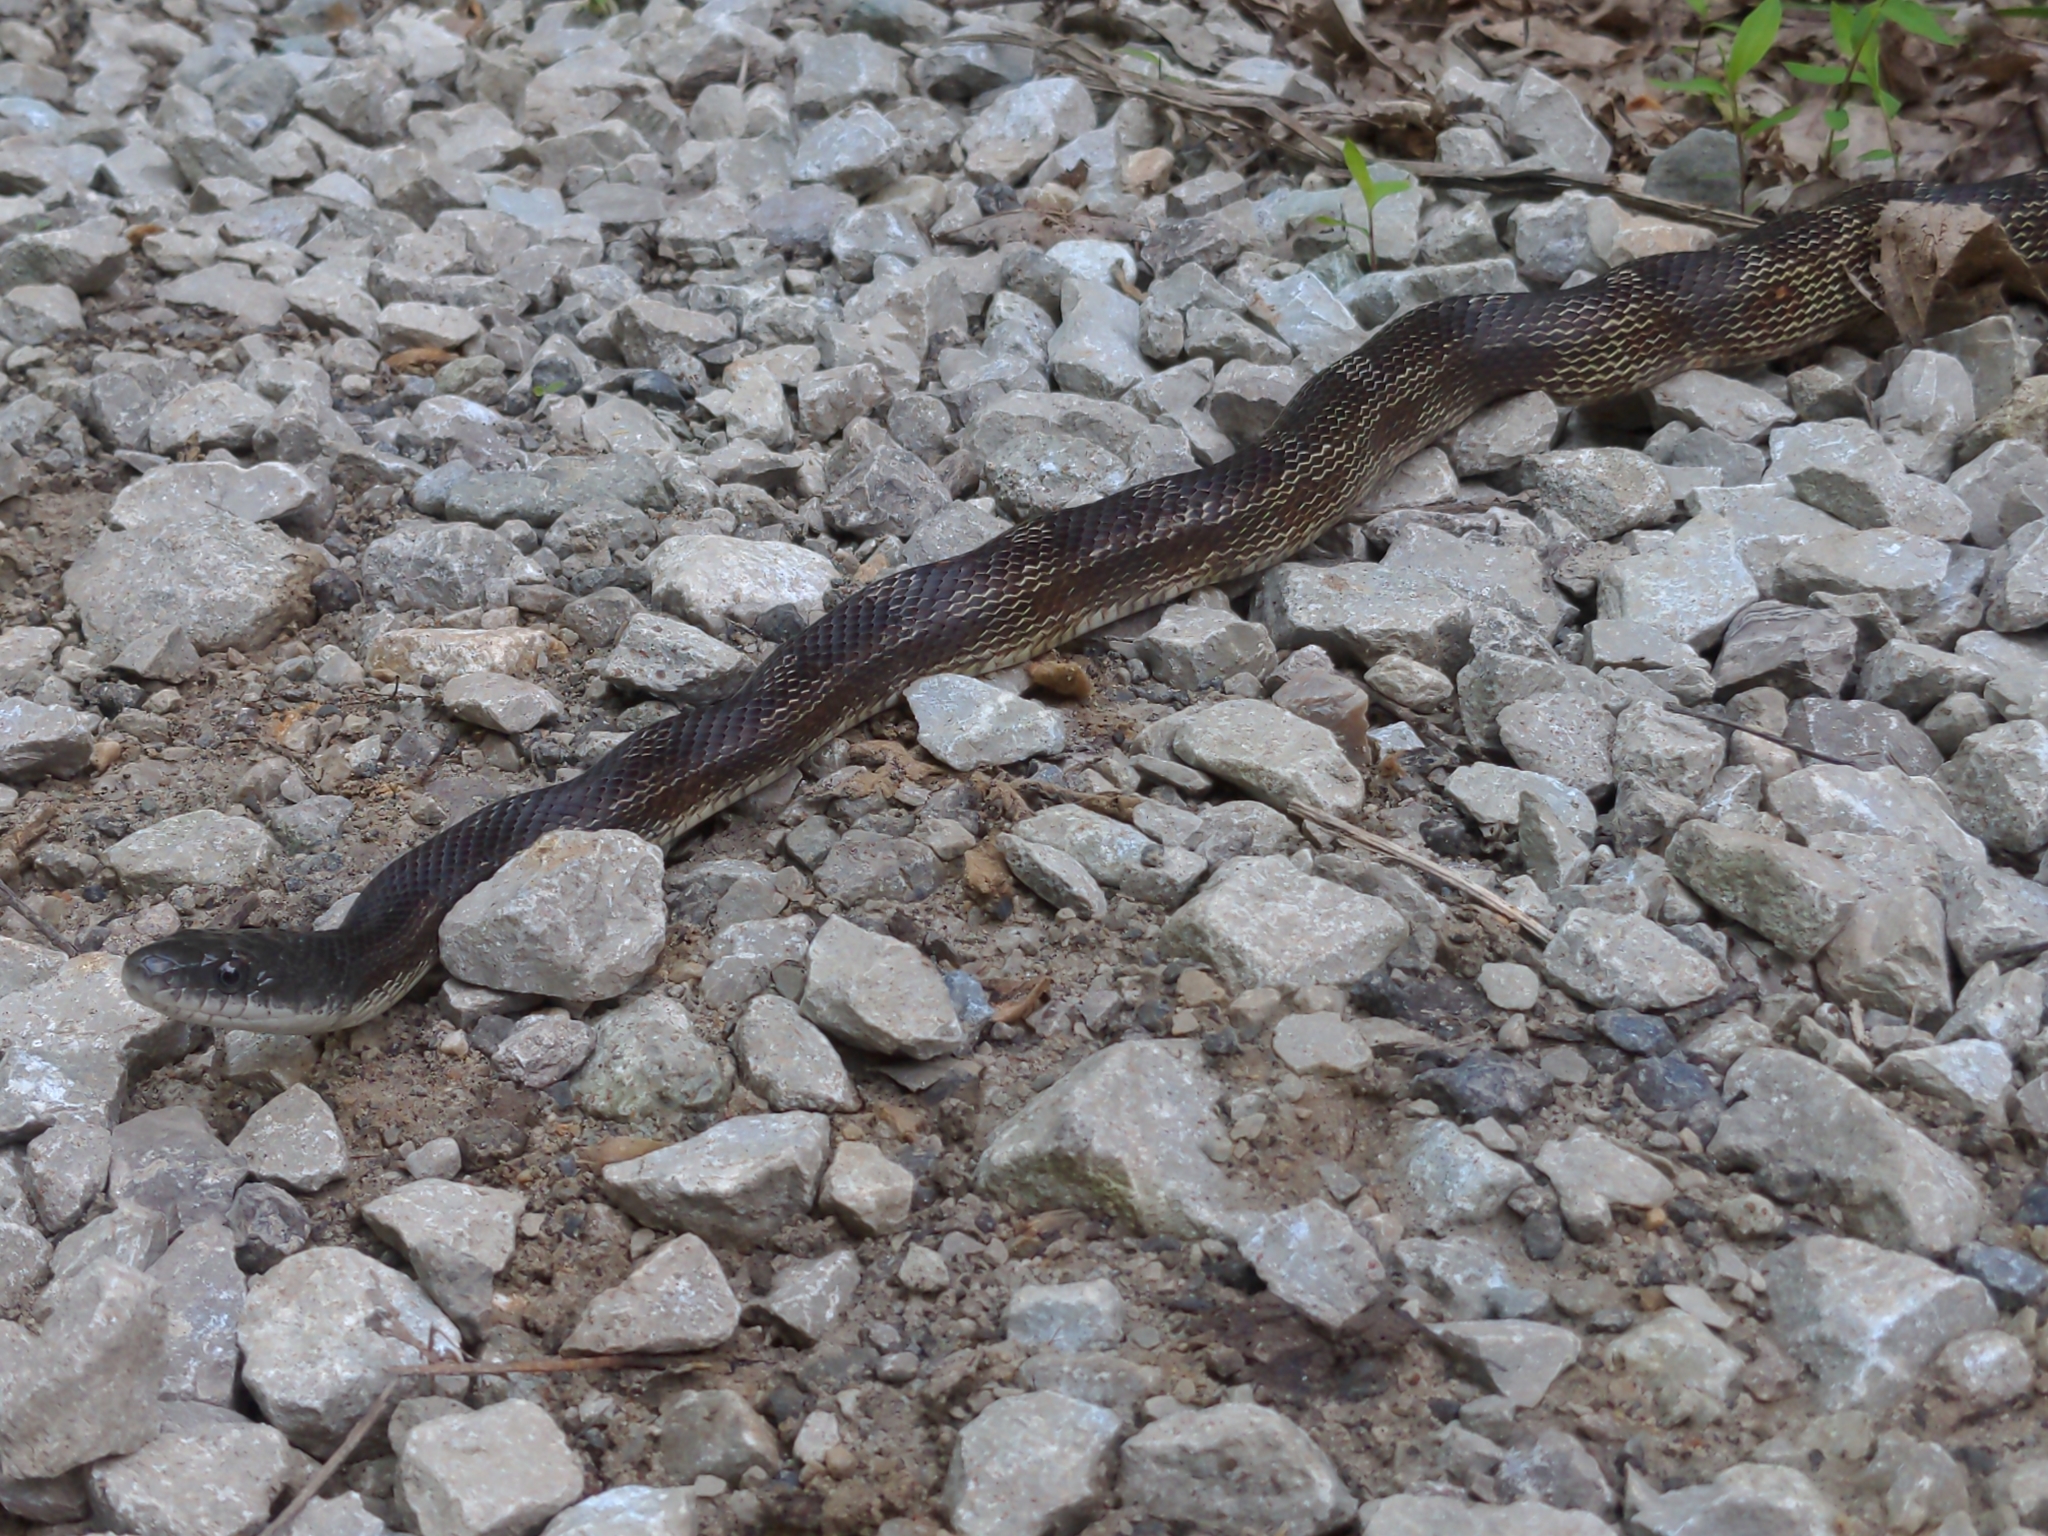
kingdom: Animalia
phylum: Chordata
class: Squamata
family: Colubridae
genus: Pantherophis
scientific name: Pantherophis spiloides
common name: Gray rat snake
